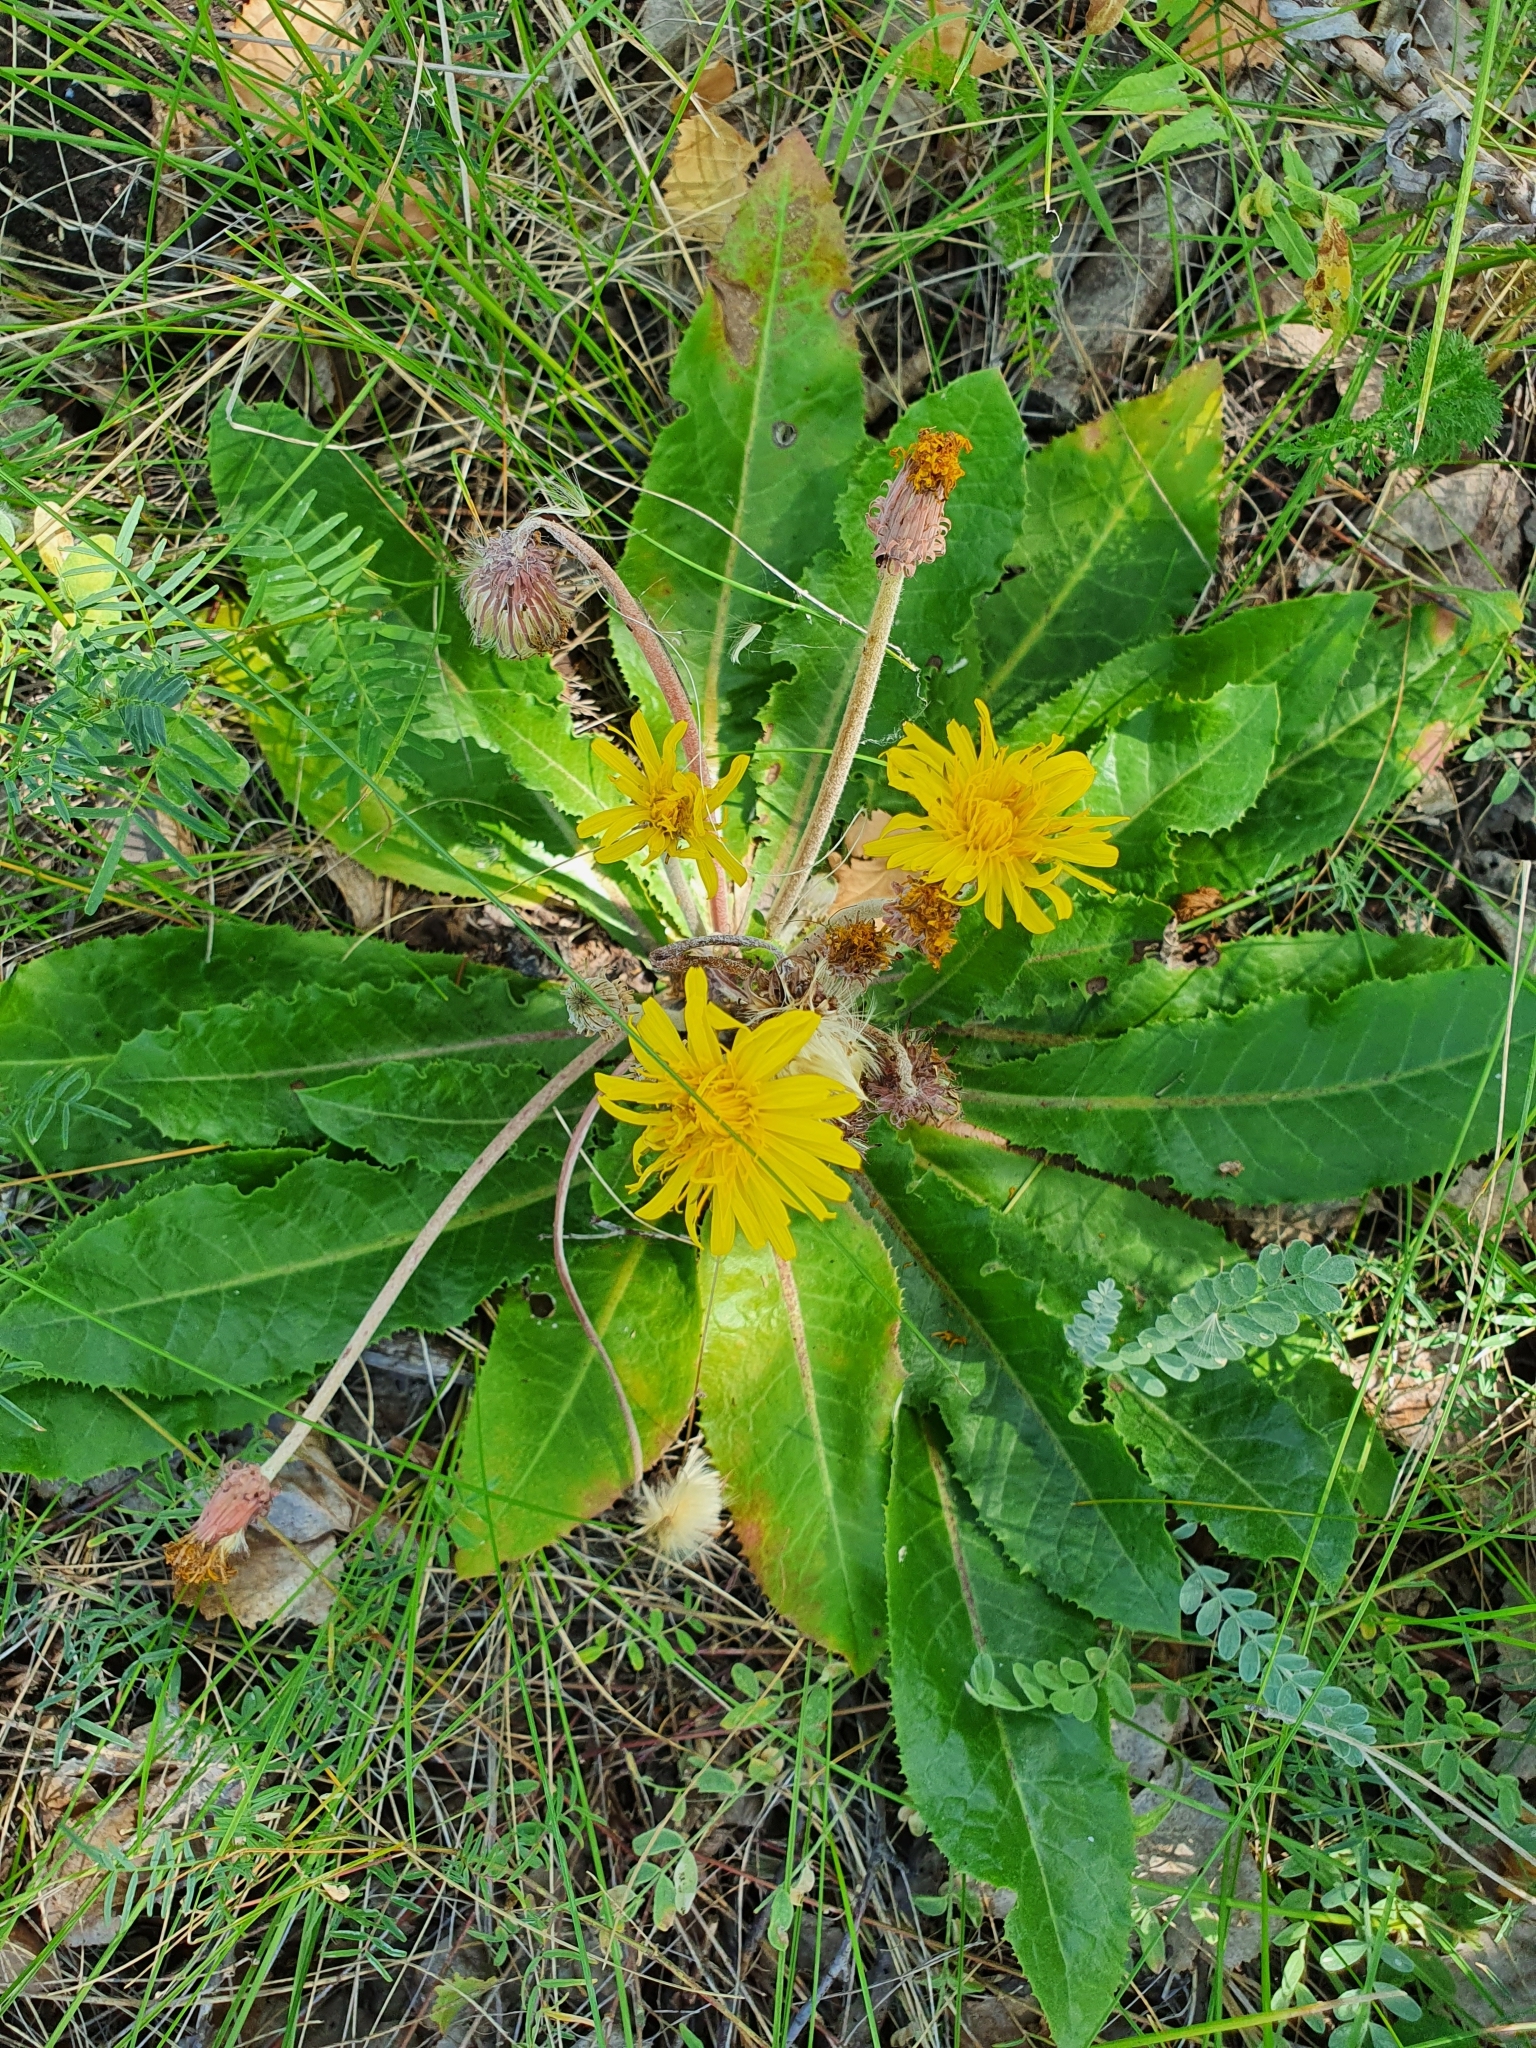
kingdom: Plantae
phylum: Tracheophyta
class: Magnoliopsida
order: Asterales
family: Asteraceae
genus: Taraxacum
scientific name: Taraxacum serotinum
